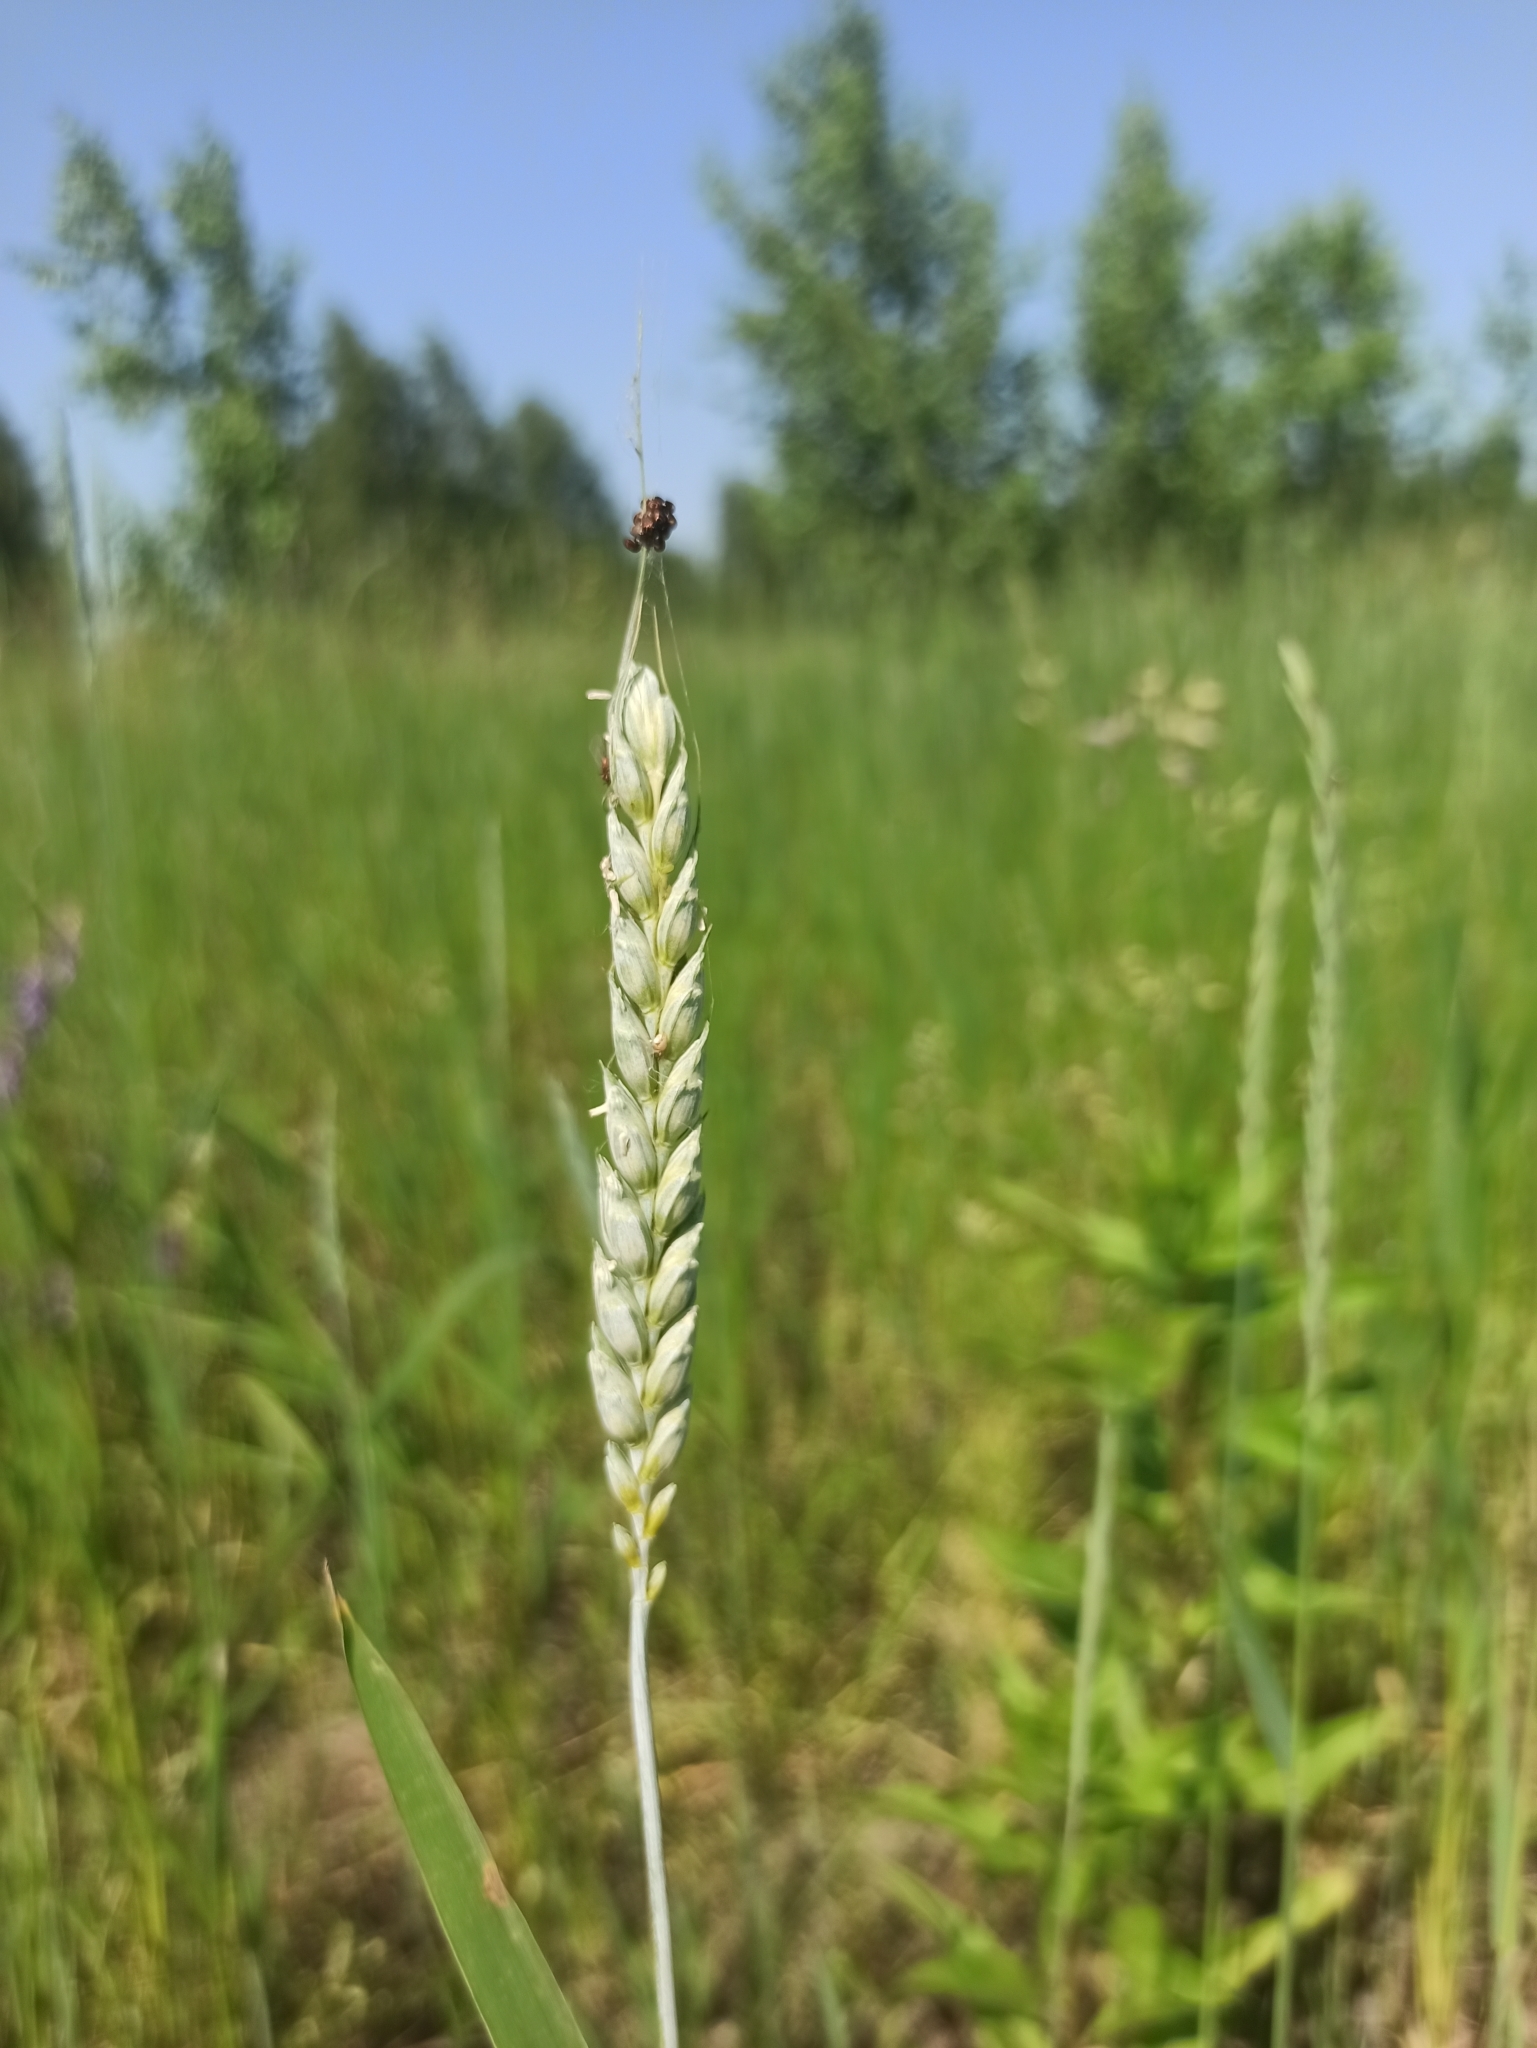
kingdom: Plantae
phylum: Tracheophyta
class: Liliopsida
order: Poales
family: Poaceae
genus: Triticum
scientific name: Triticum aestivum
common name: Common wheat
